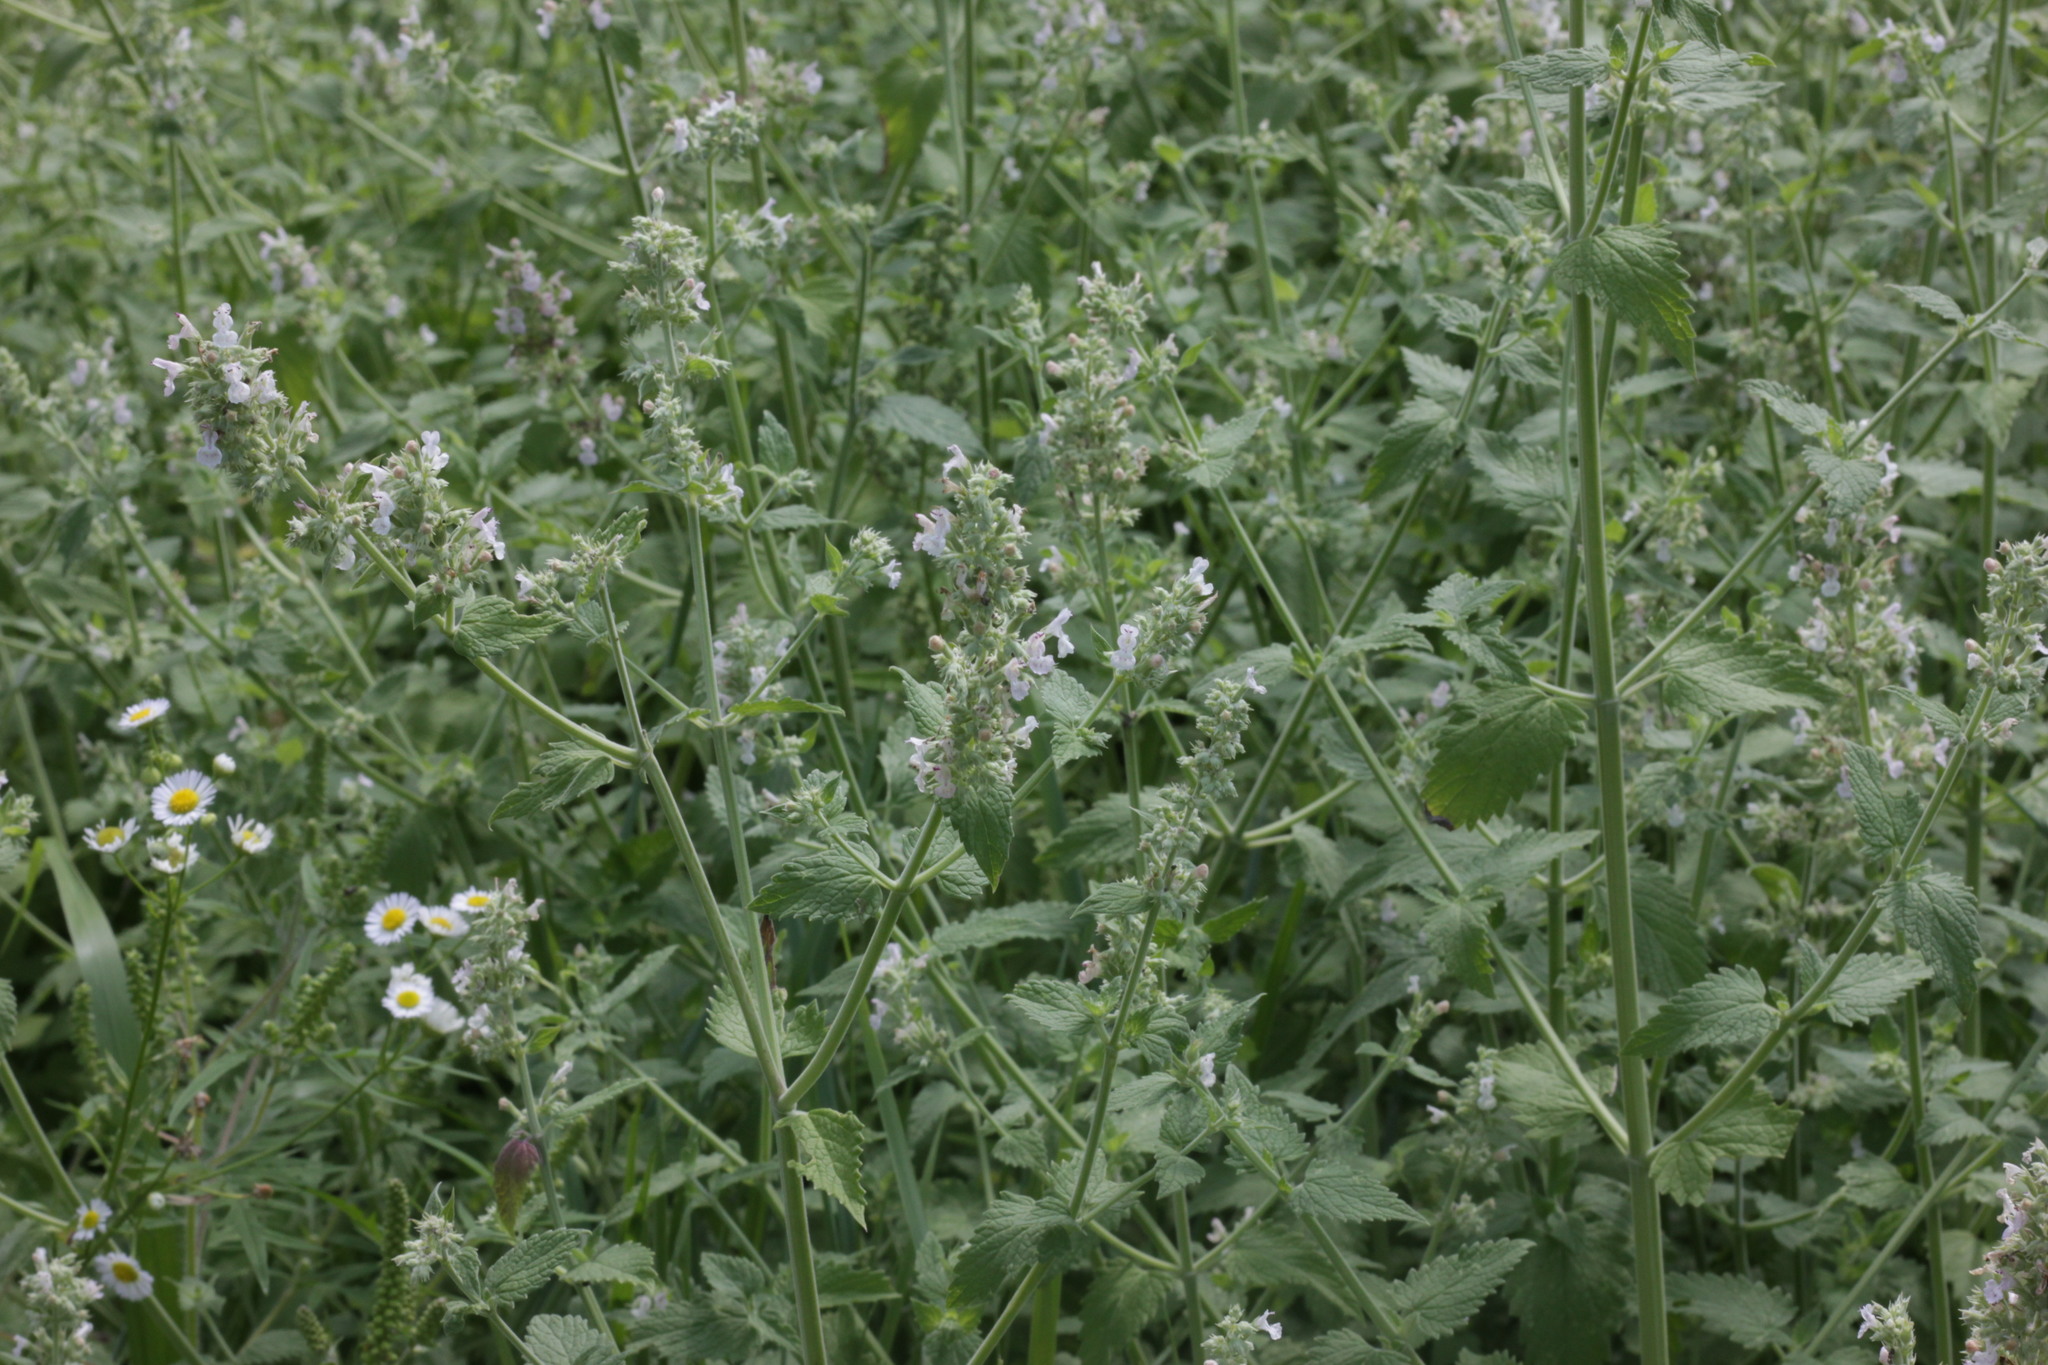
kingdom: Plantae
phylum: Tracheophyta
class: Magnoliopsida
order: Lamiales
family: Lamiaceae
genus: Nepeta
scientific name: Nepeta cataria
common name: Catnip
